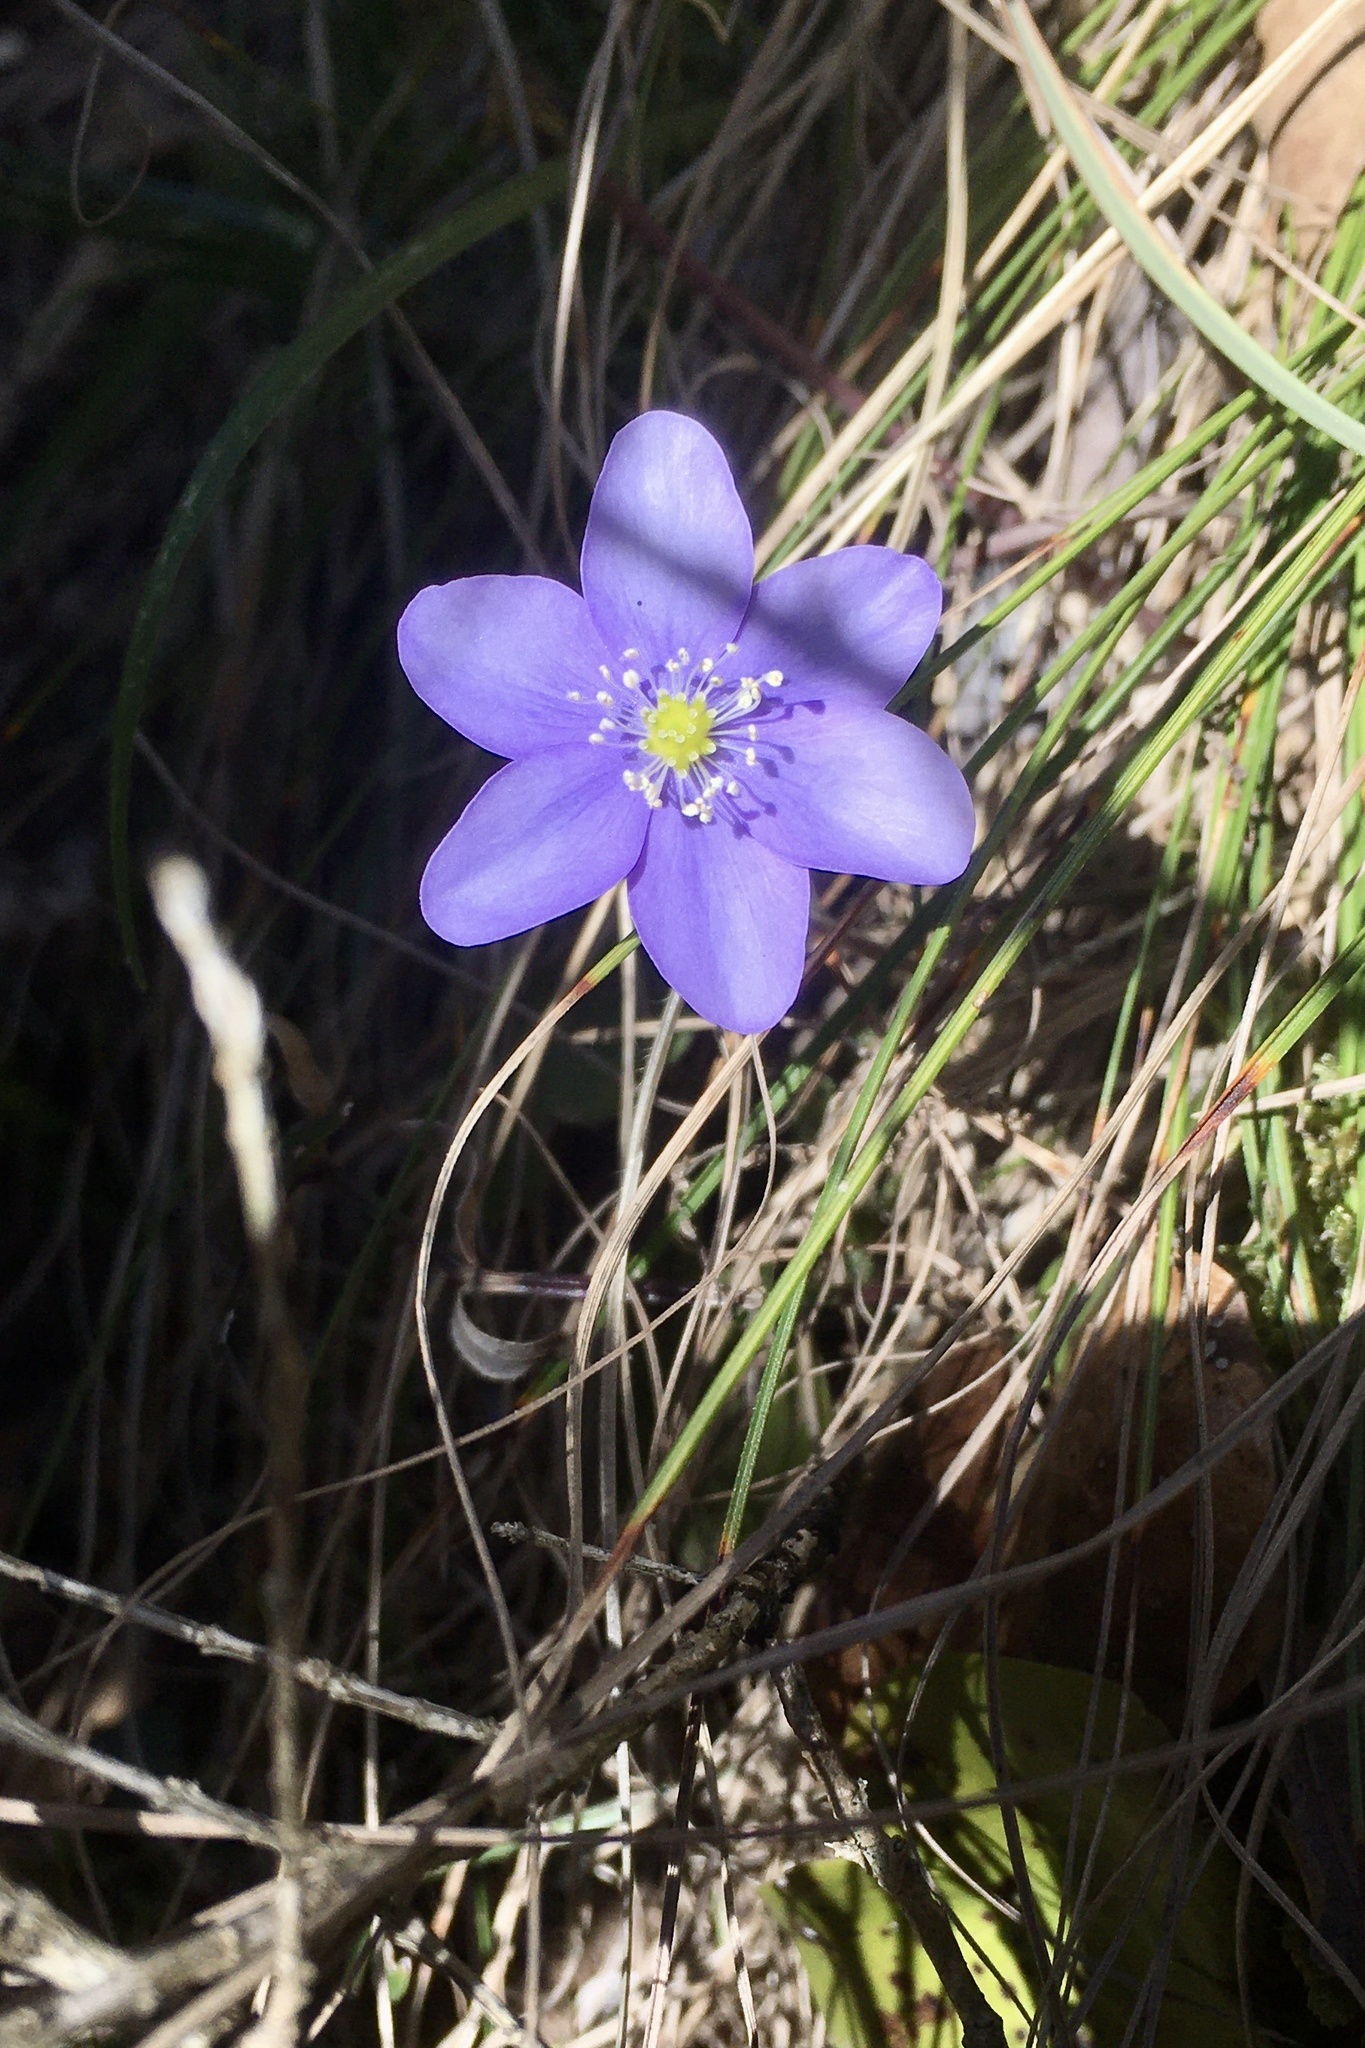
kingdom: Plantae
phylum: Tracheophyta
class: Magnoliopsida
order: Ranunculales
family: Ranunculaceae
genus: Hepatica
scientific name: Hepatica nobilis
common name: Liverleaf
